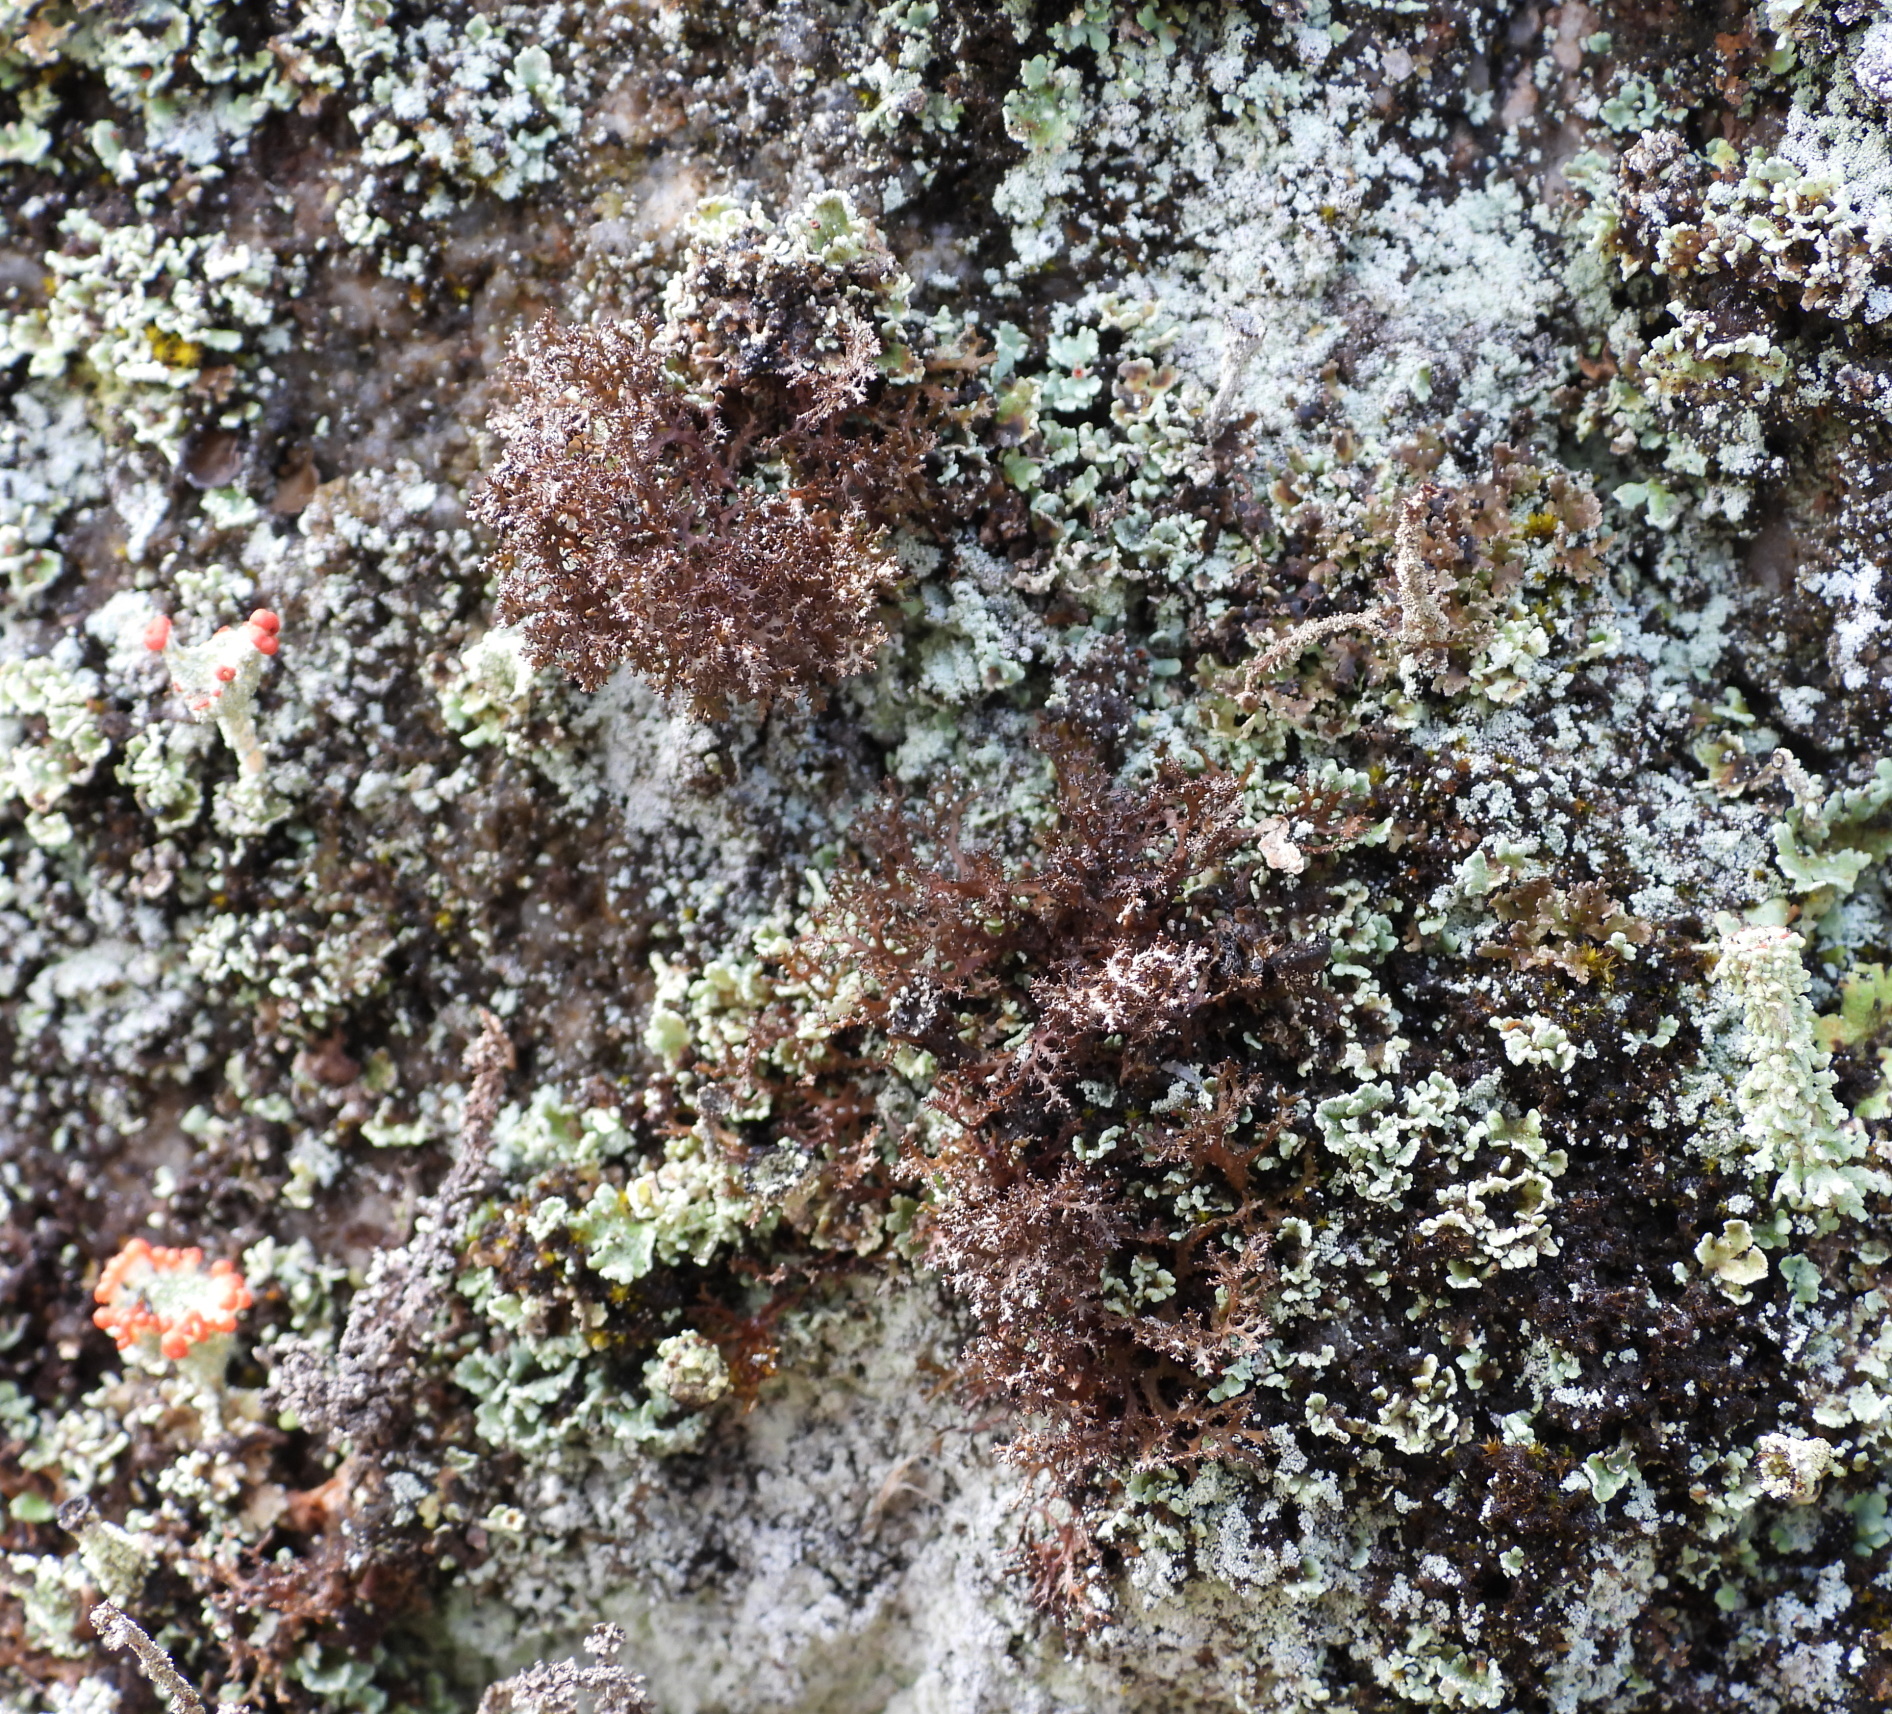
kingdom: Fungi
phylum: Ascomycota
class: Lecanoromycetes
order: Lecanorales
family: Parmeliaceae
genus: Cetraria
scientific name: Cetraria odontella
